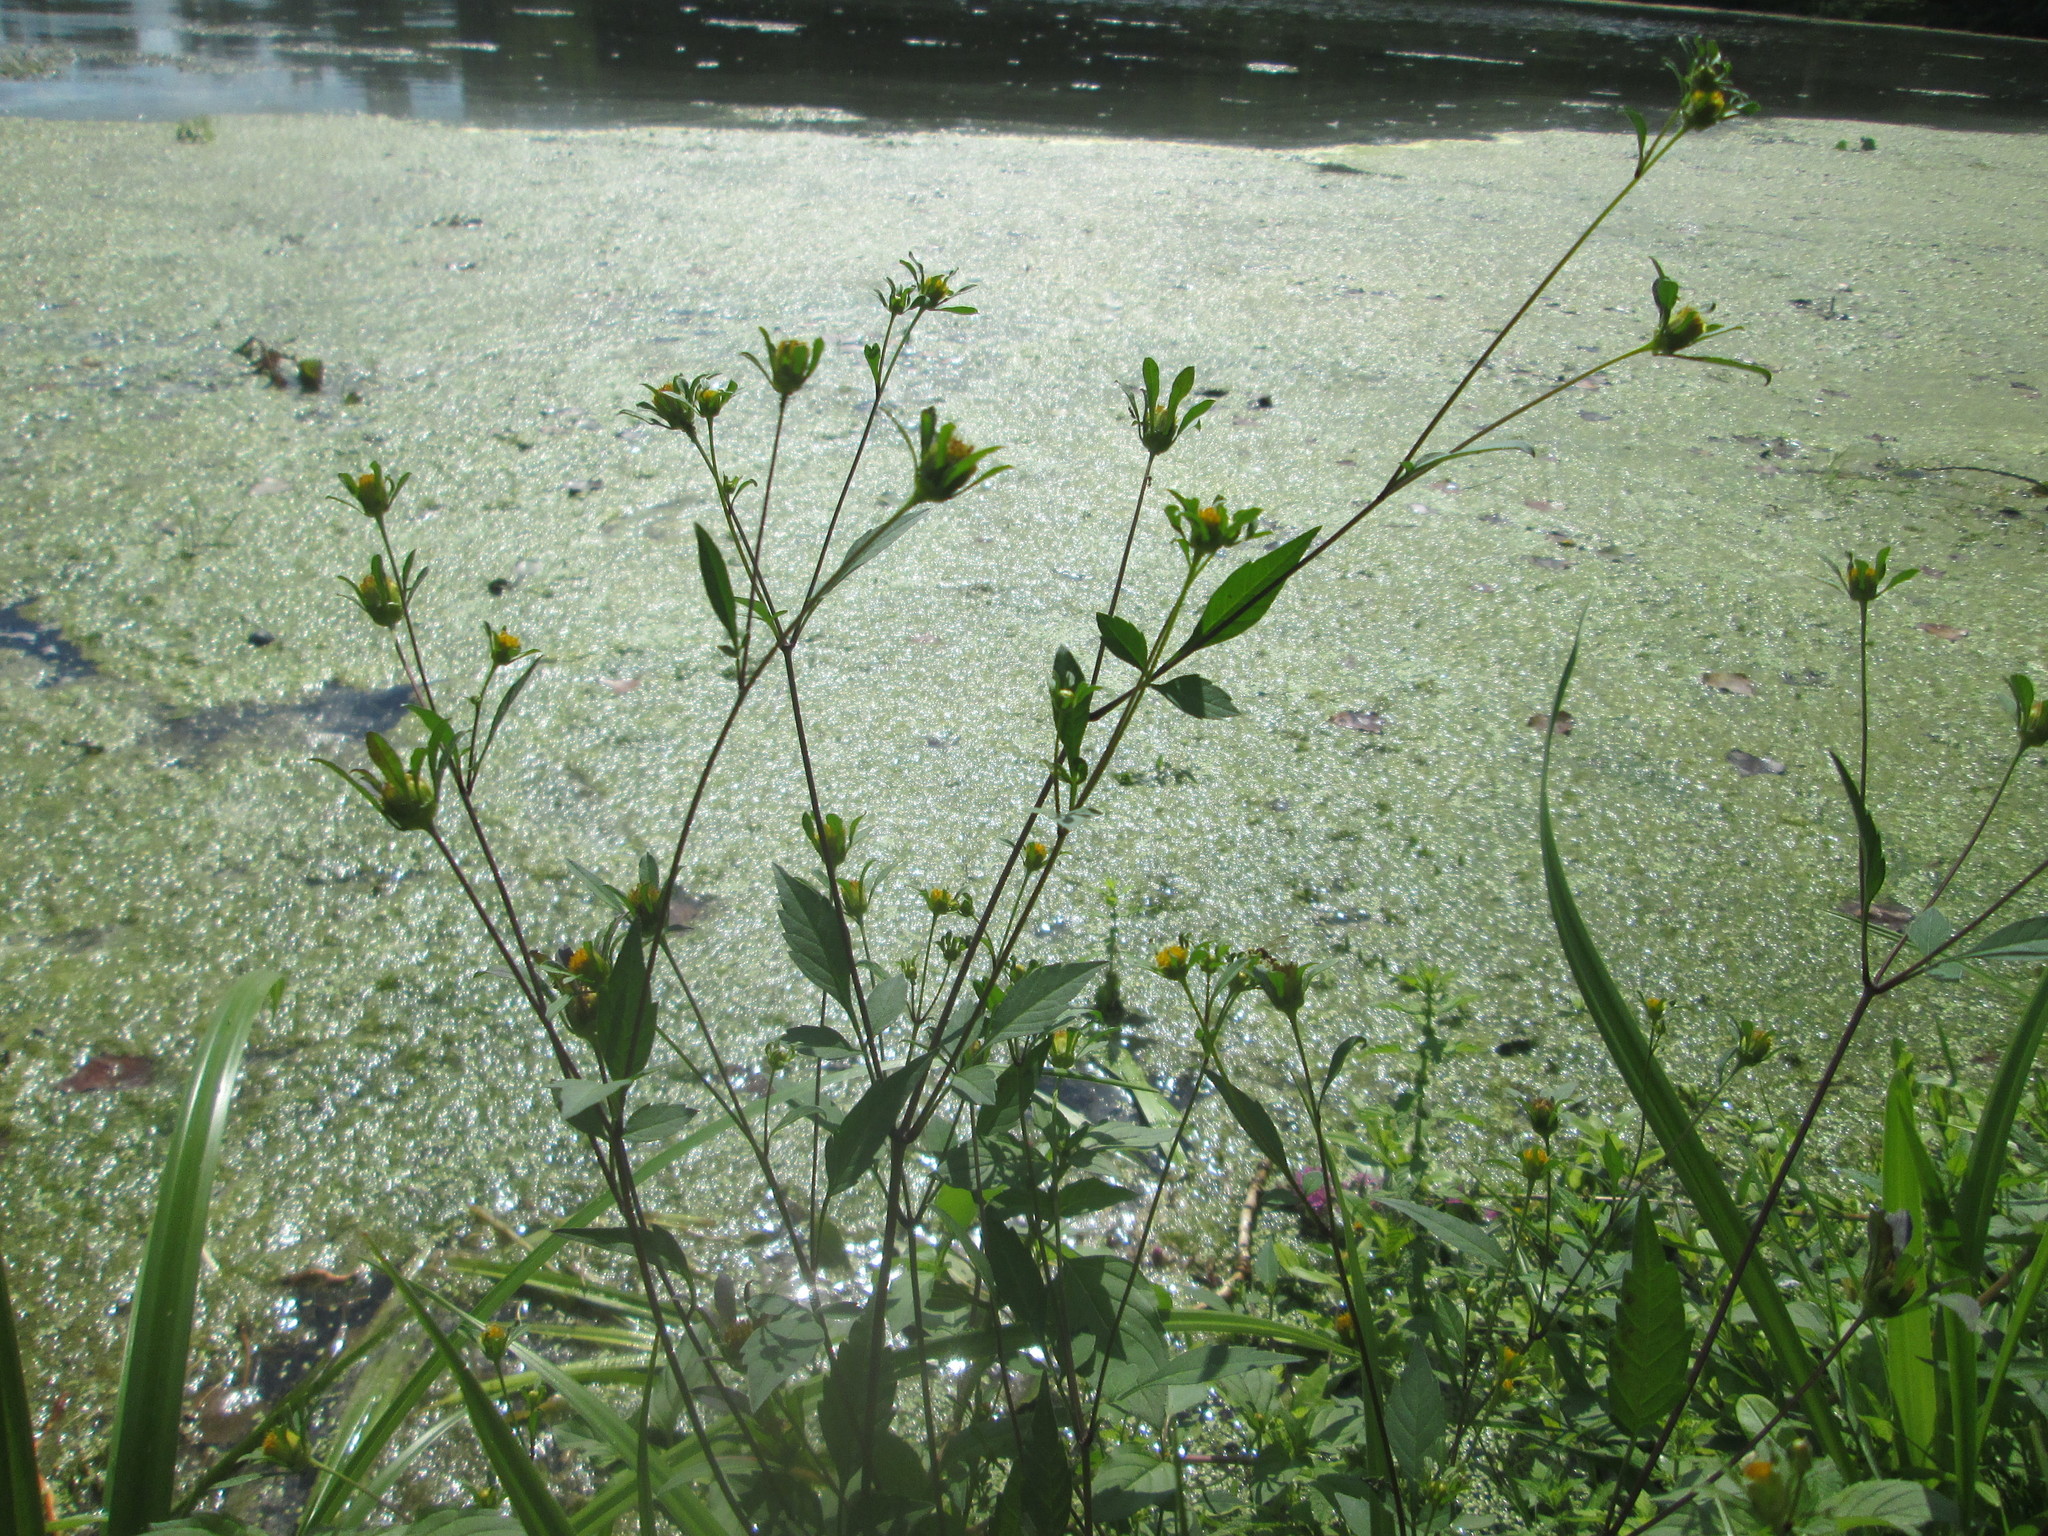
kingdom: Plantae
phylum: Tracheophyta
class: Magnoliopsida
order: Asterales
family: Asteraceae
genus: Bidens
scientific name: Bidens frondosa
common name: Beggarticks
